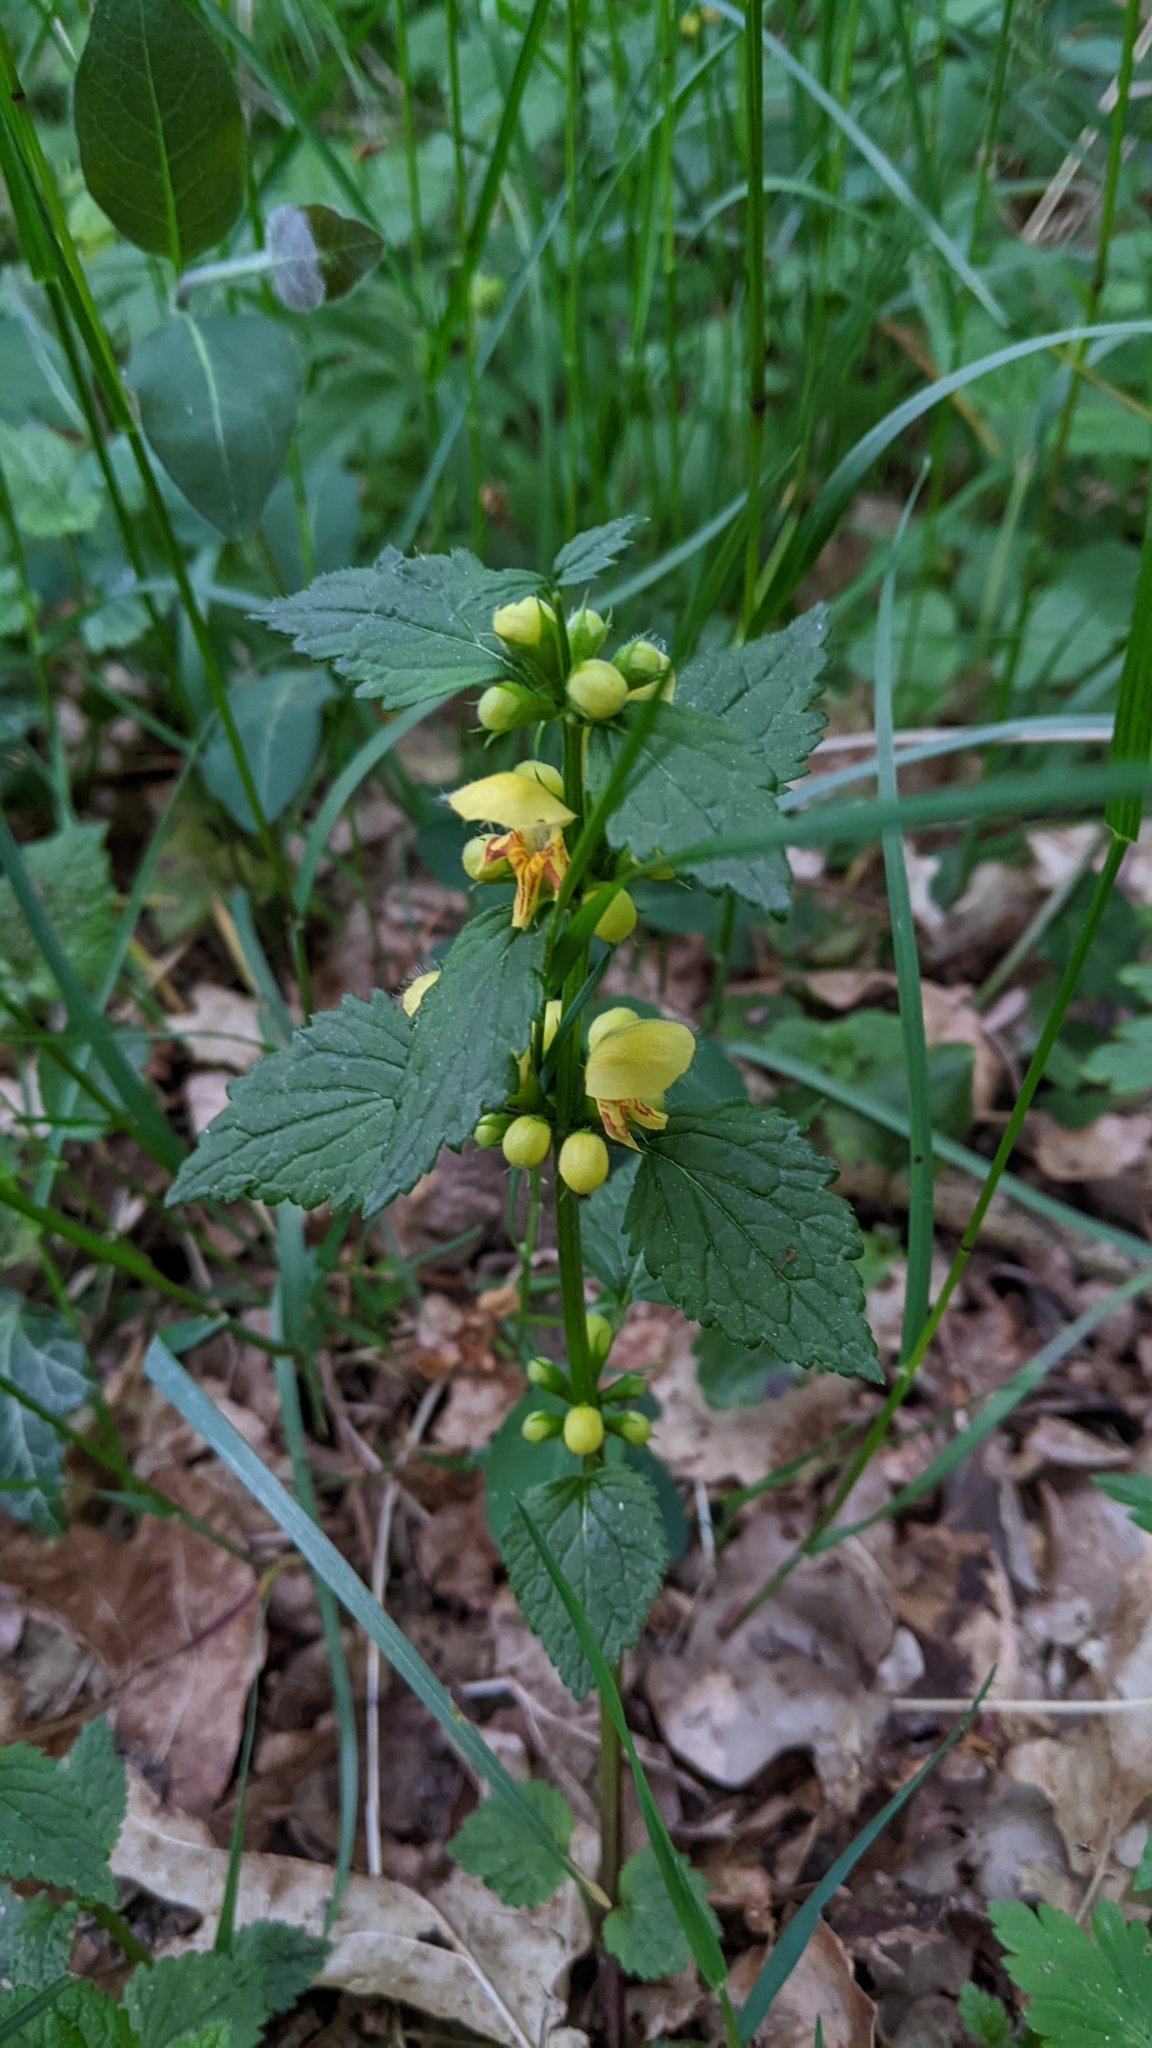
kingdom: Plantae
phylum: Tracheophyta
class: Magnoliopsida
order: Lamiales
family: Lamiaceae
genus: Lamium
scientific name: Lamium galeobdolon
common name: Yellow archangel
